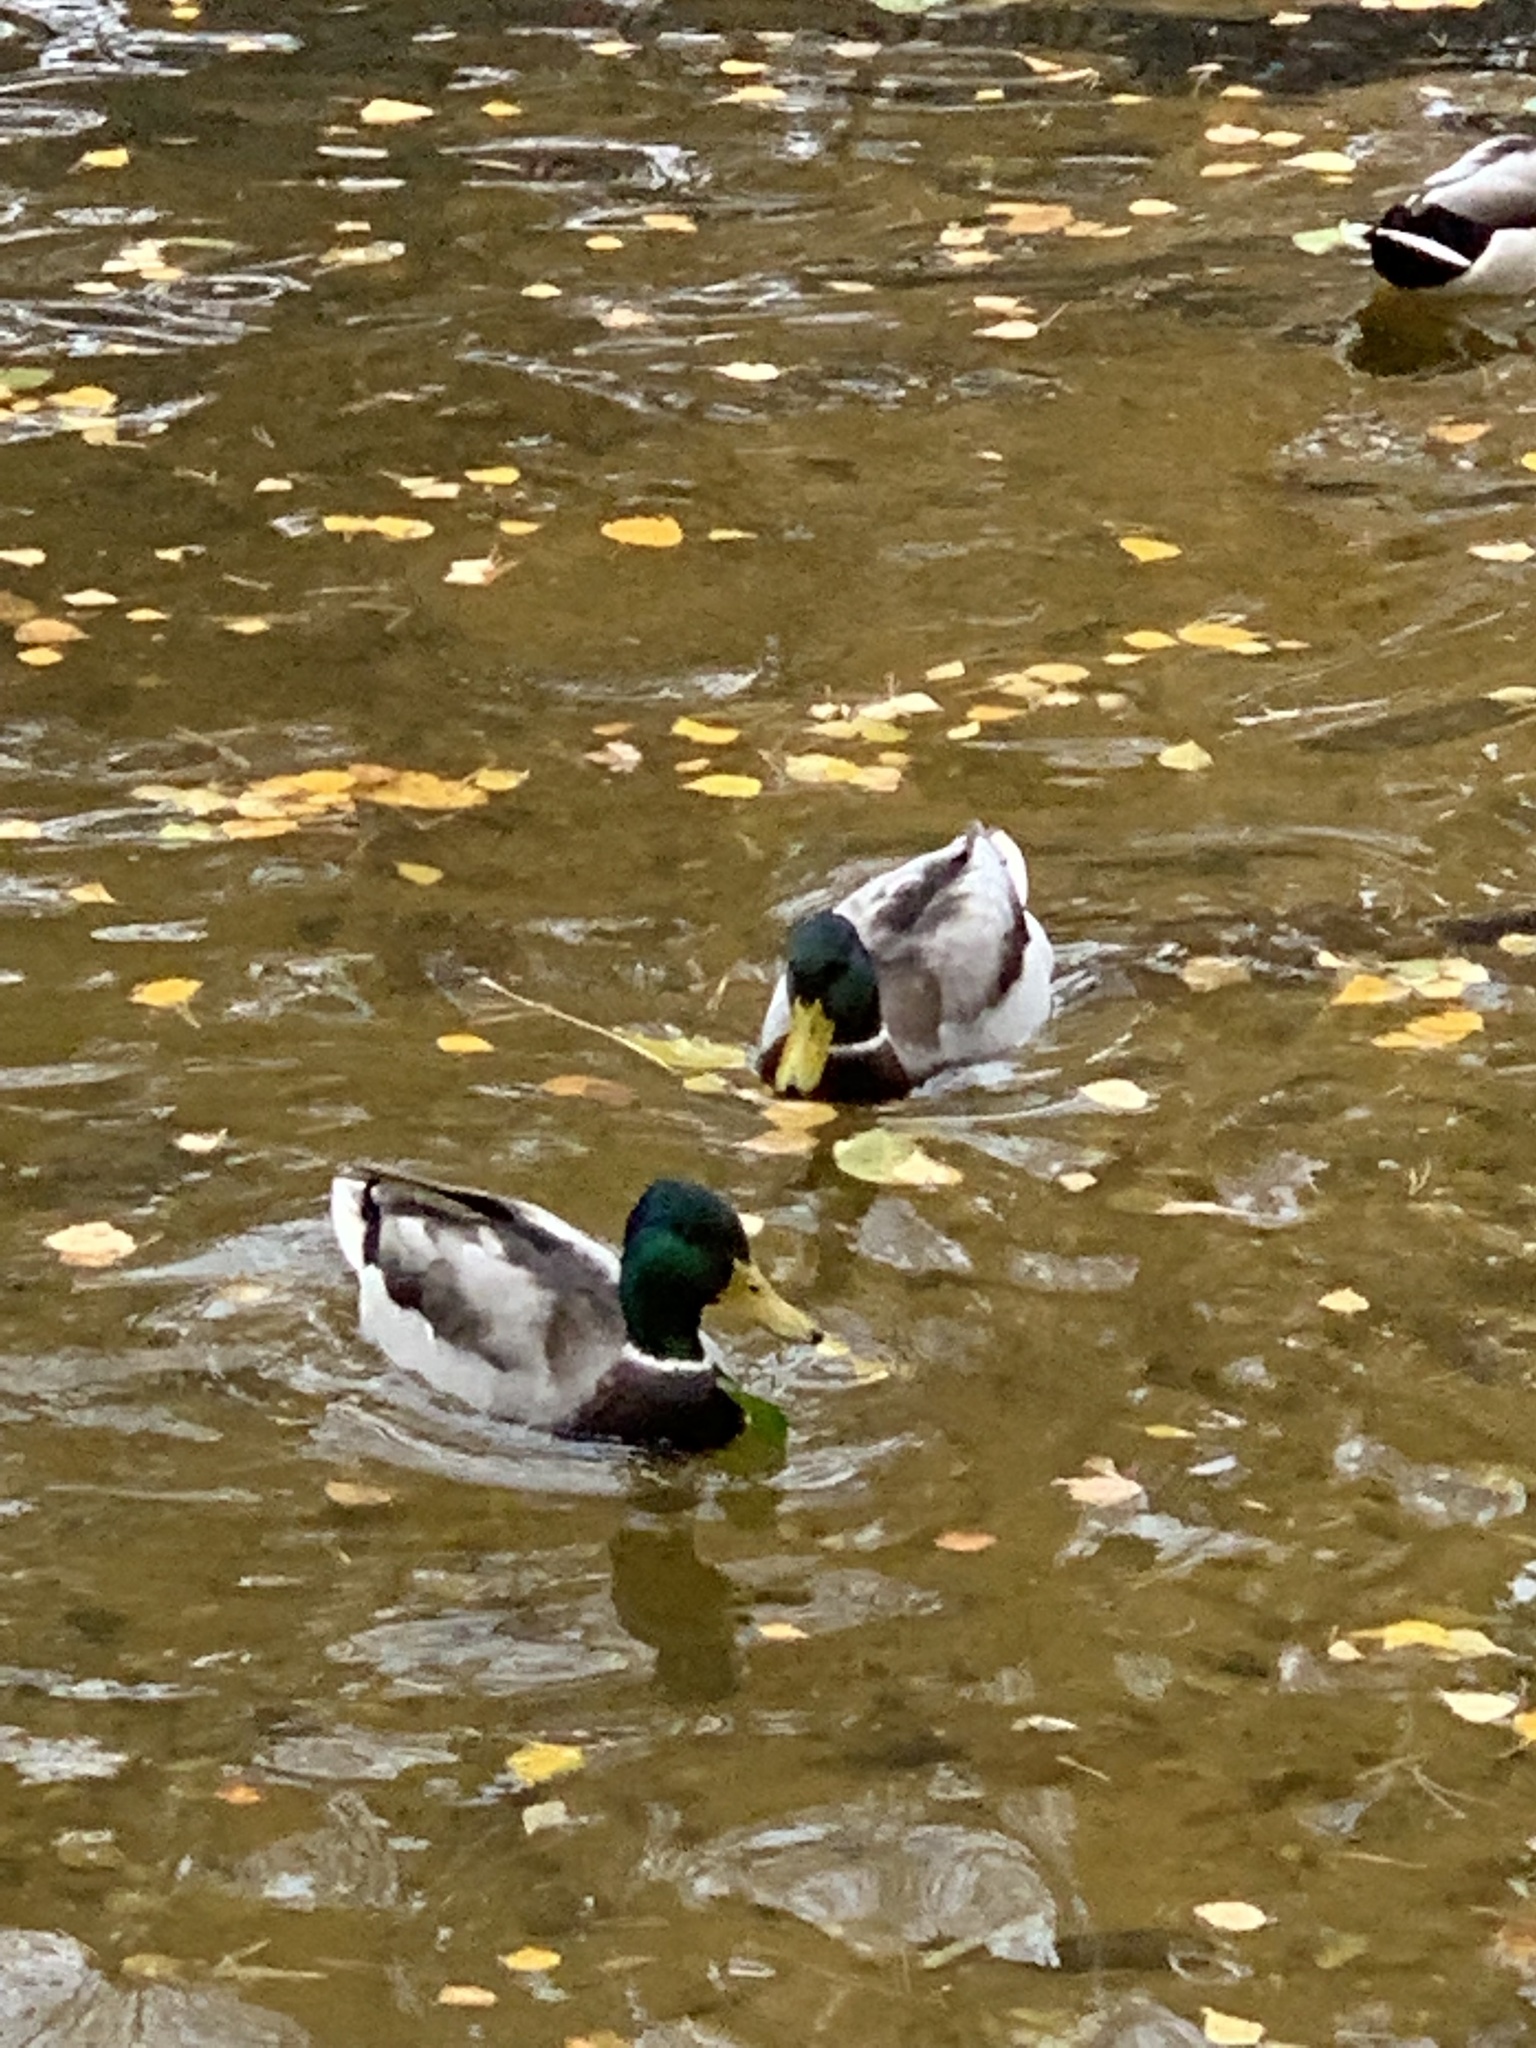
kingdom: Animalia
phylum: Chordata
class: Aves
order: Anseriformes
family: Anatidae
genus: Anas
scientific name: Anas platyrhynchos
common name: Mallard
